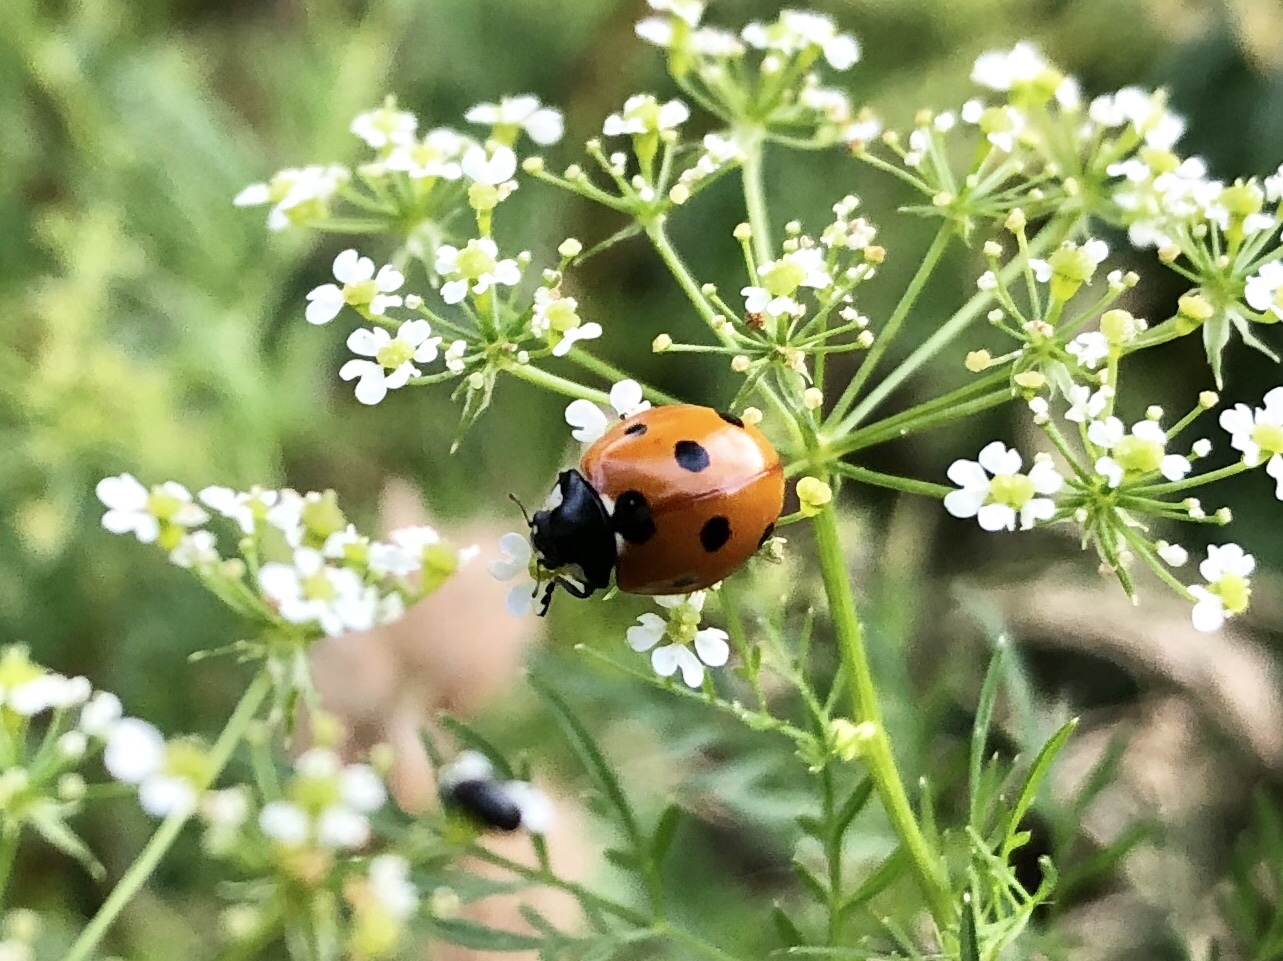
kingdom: Animalia
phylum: Arthropoda
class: Insecta
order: Coleoptera
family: Coccinellidae
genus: Coccinella
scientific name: Coccinella septempunctata
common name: Sevenspotted lady beetle
